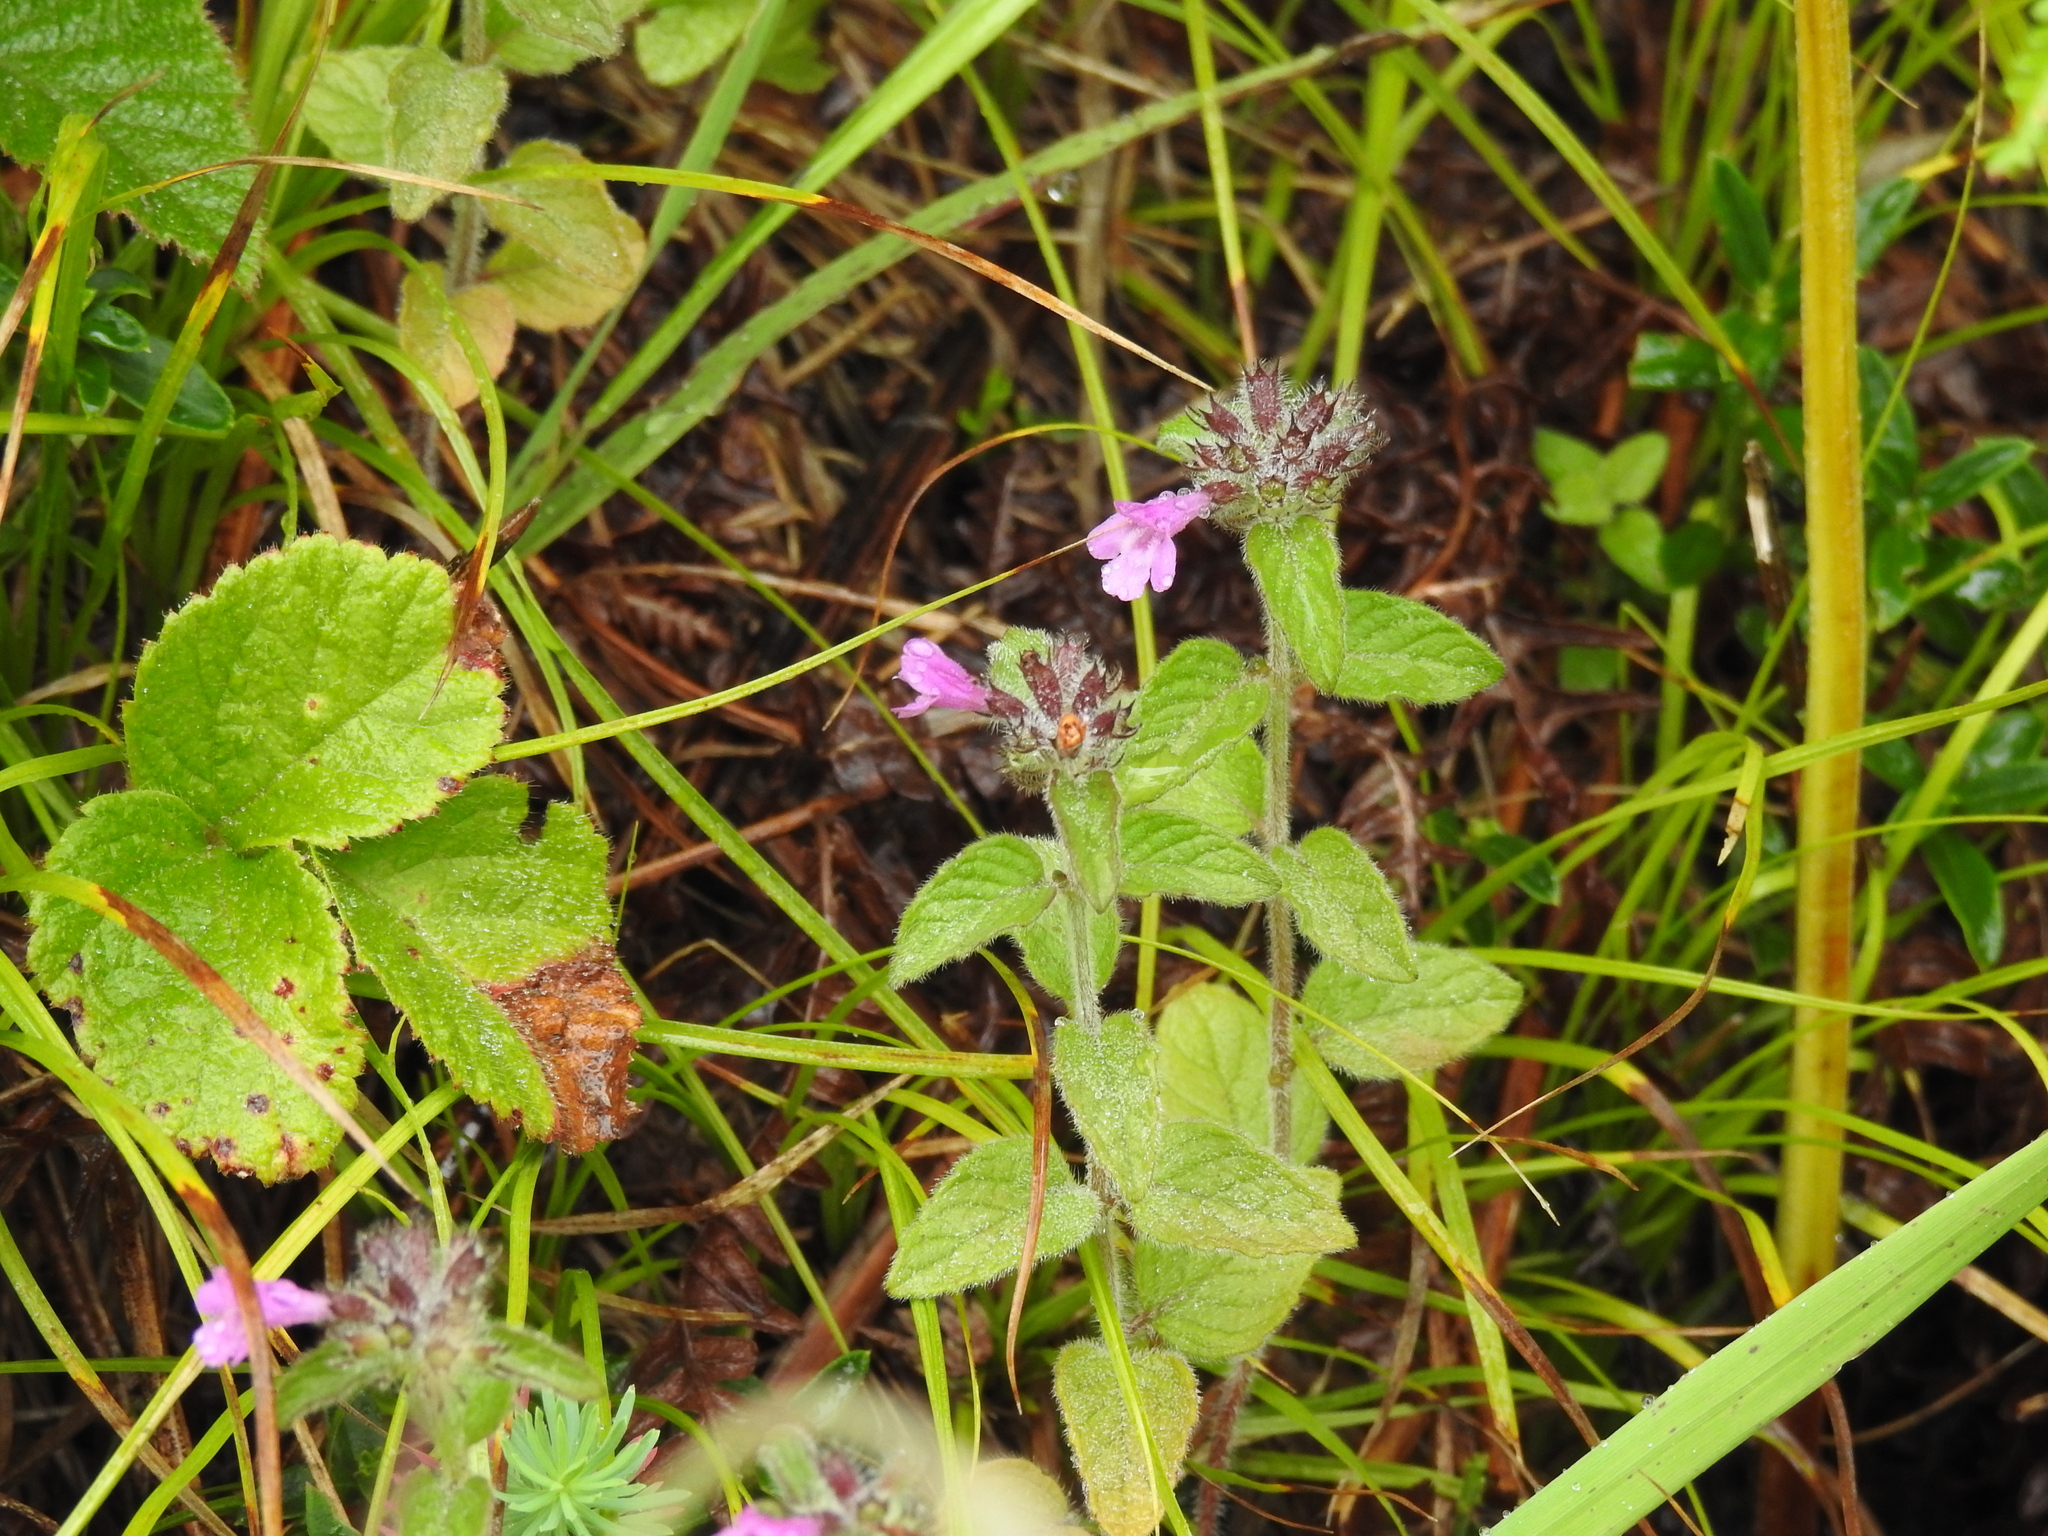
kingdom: Plantae
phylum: Tracheophyta
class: Magnoliopsida
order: Lamiales
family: Lamiaceae
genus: Clinopodium
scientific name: Clinopodium vulgare
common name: Wild basil
